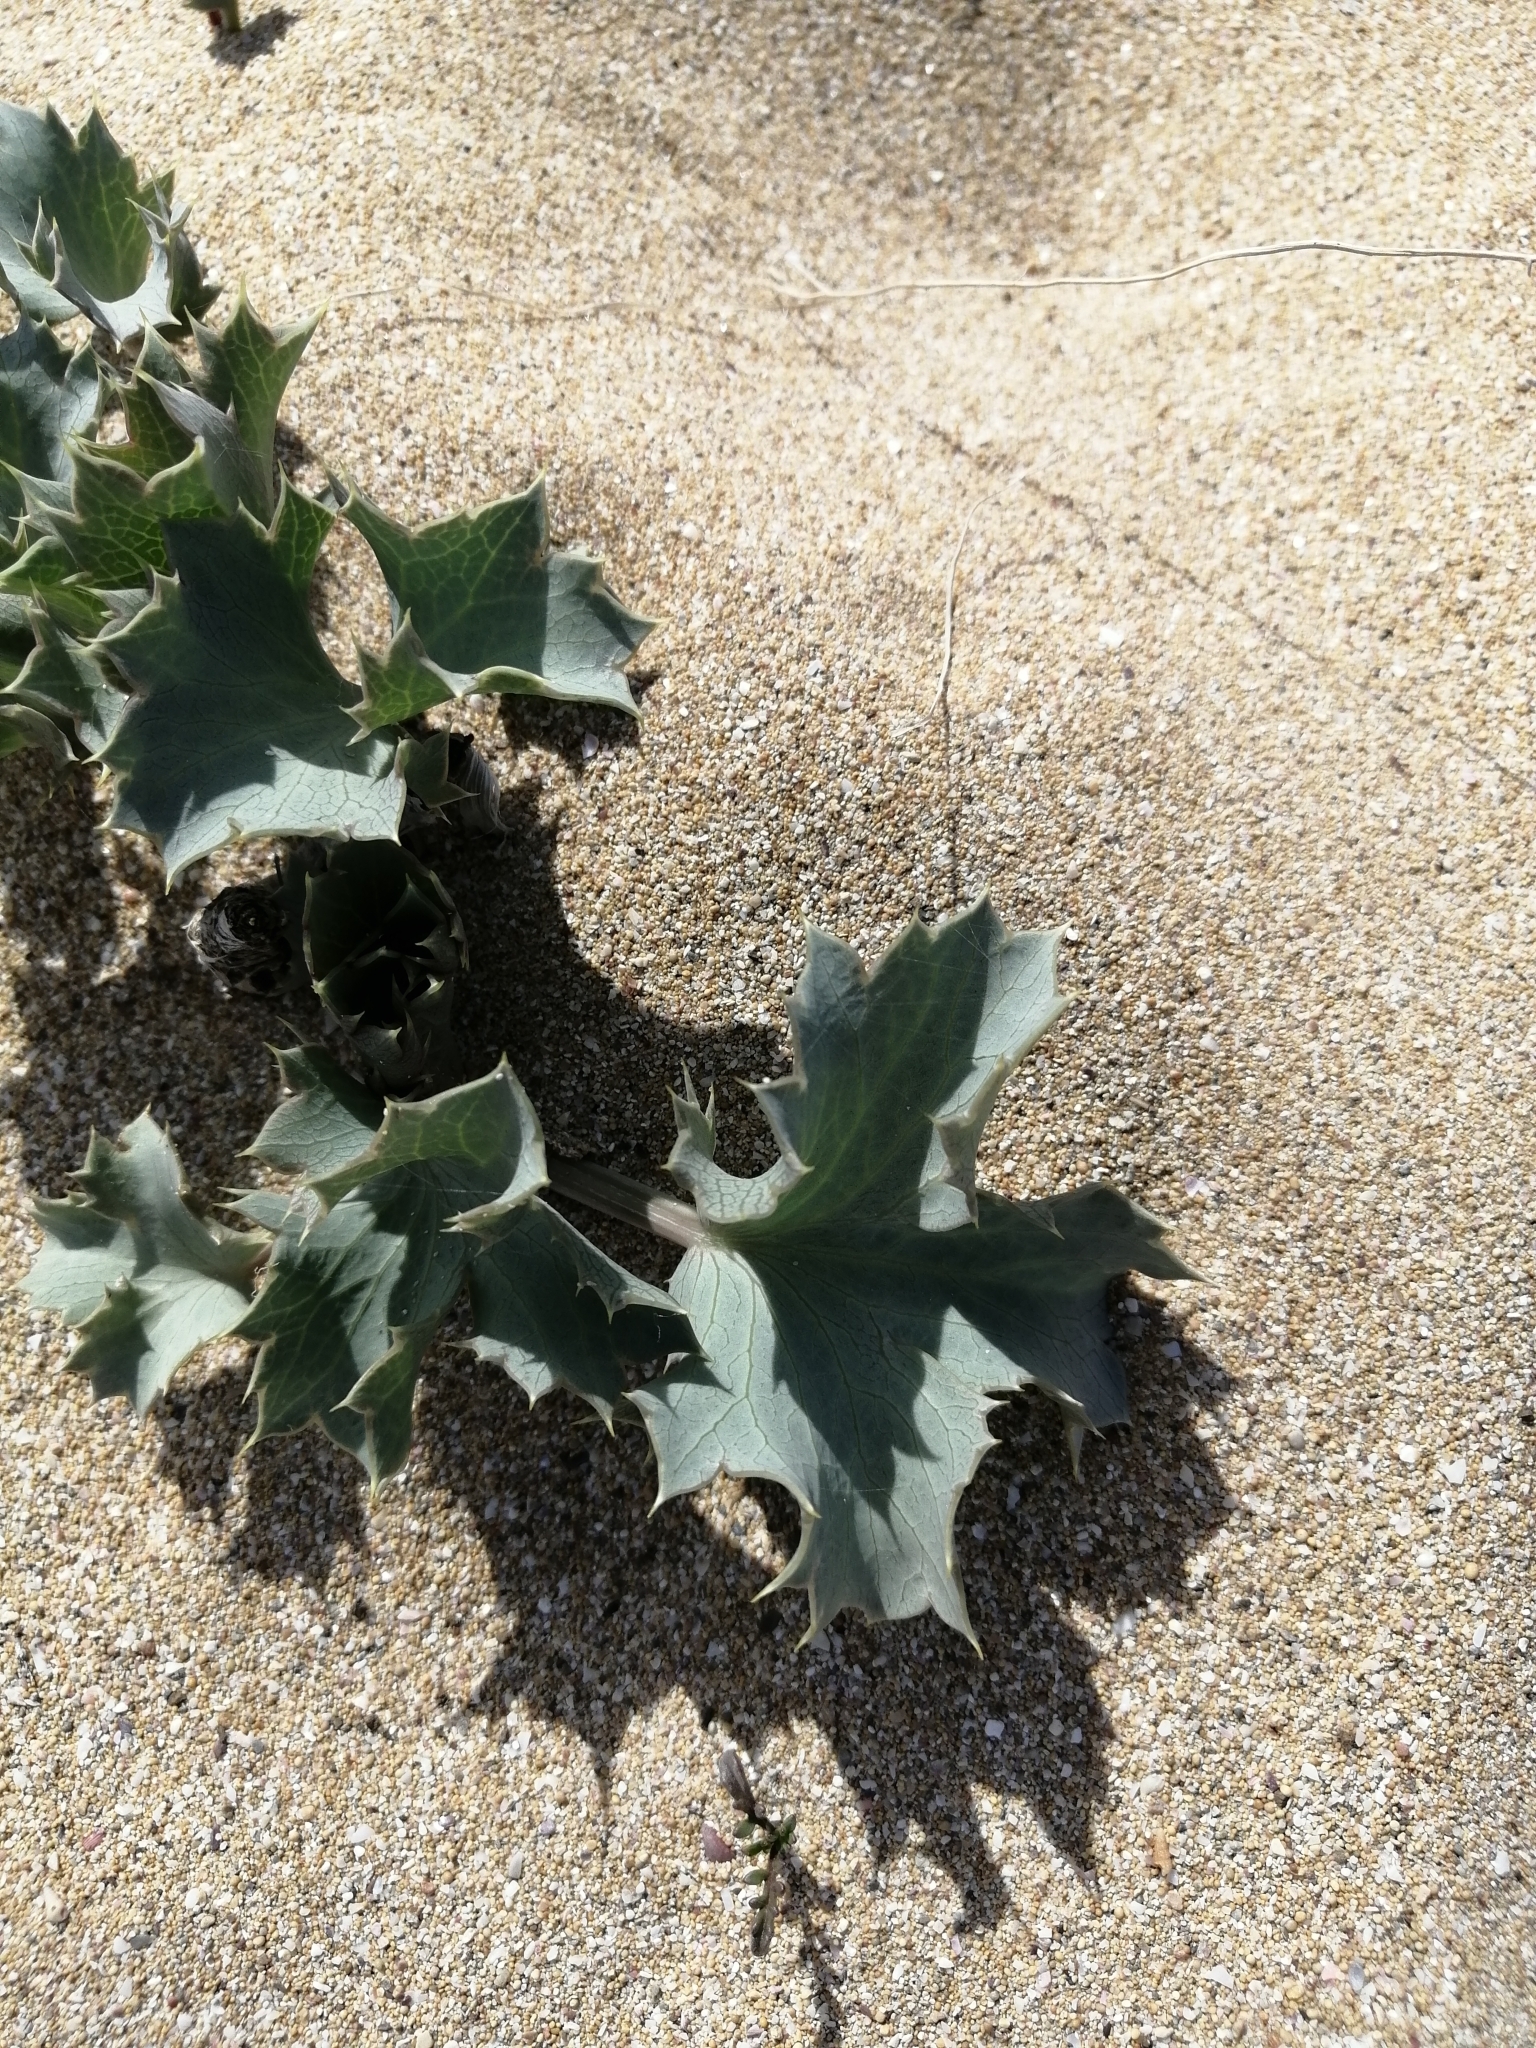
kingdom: Plantae
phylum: Tracheophyta
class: Magnoliopsida
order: Apiales
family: Apiaceae
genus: Eryngium
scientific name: Eryngium maritimum
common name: Sea-holly
